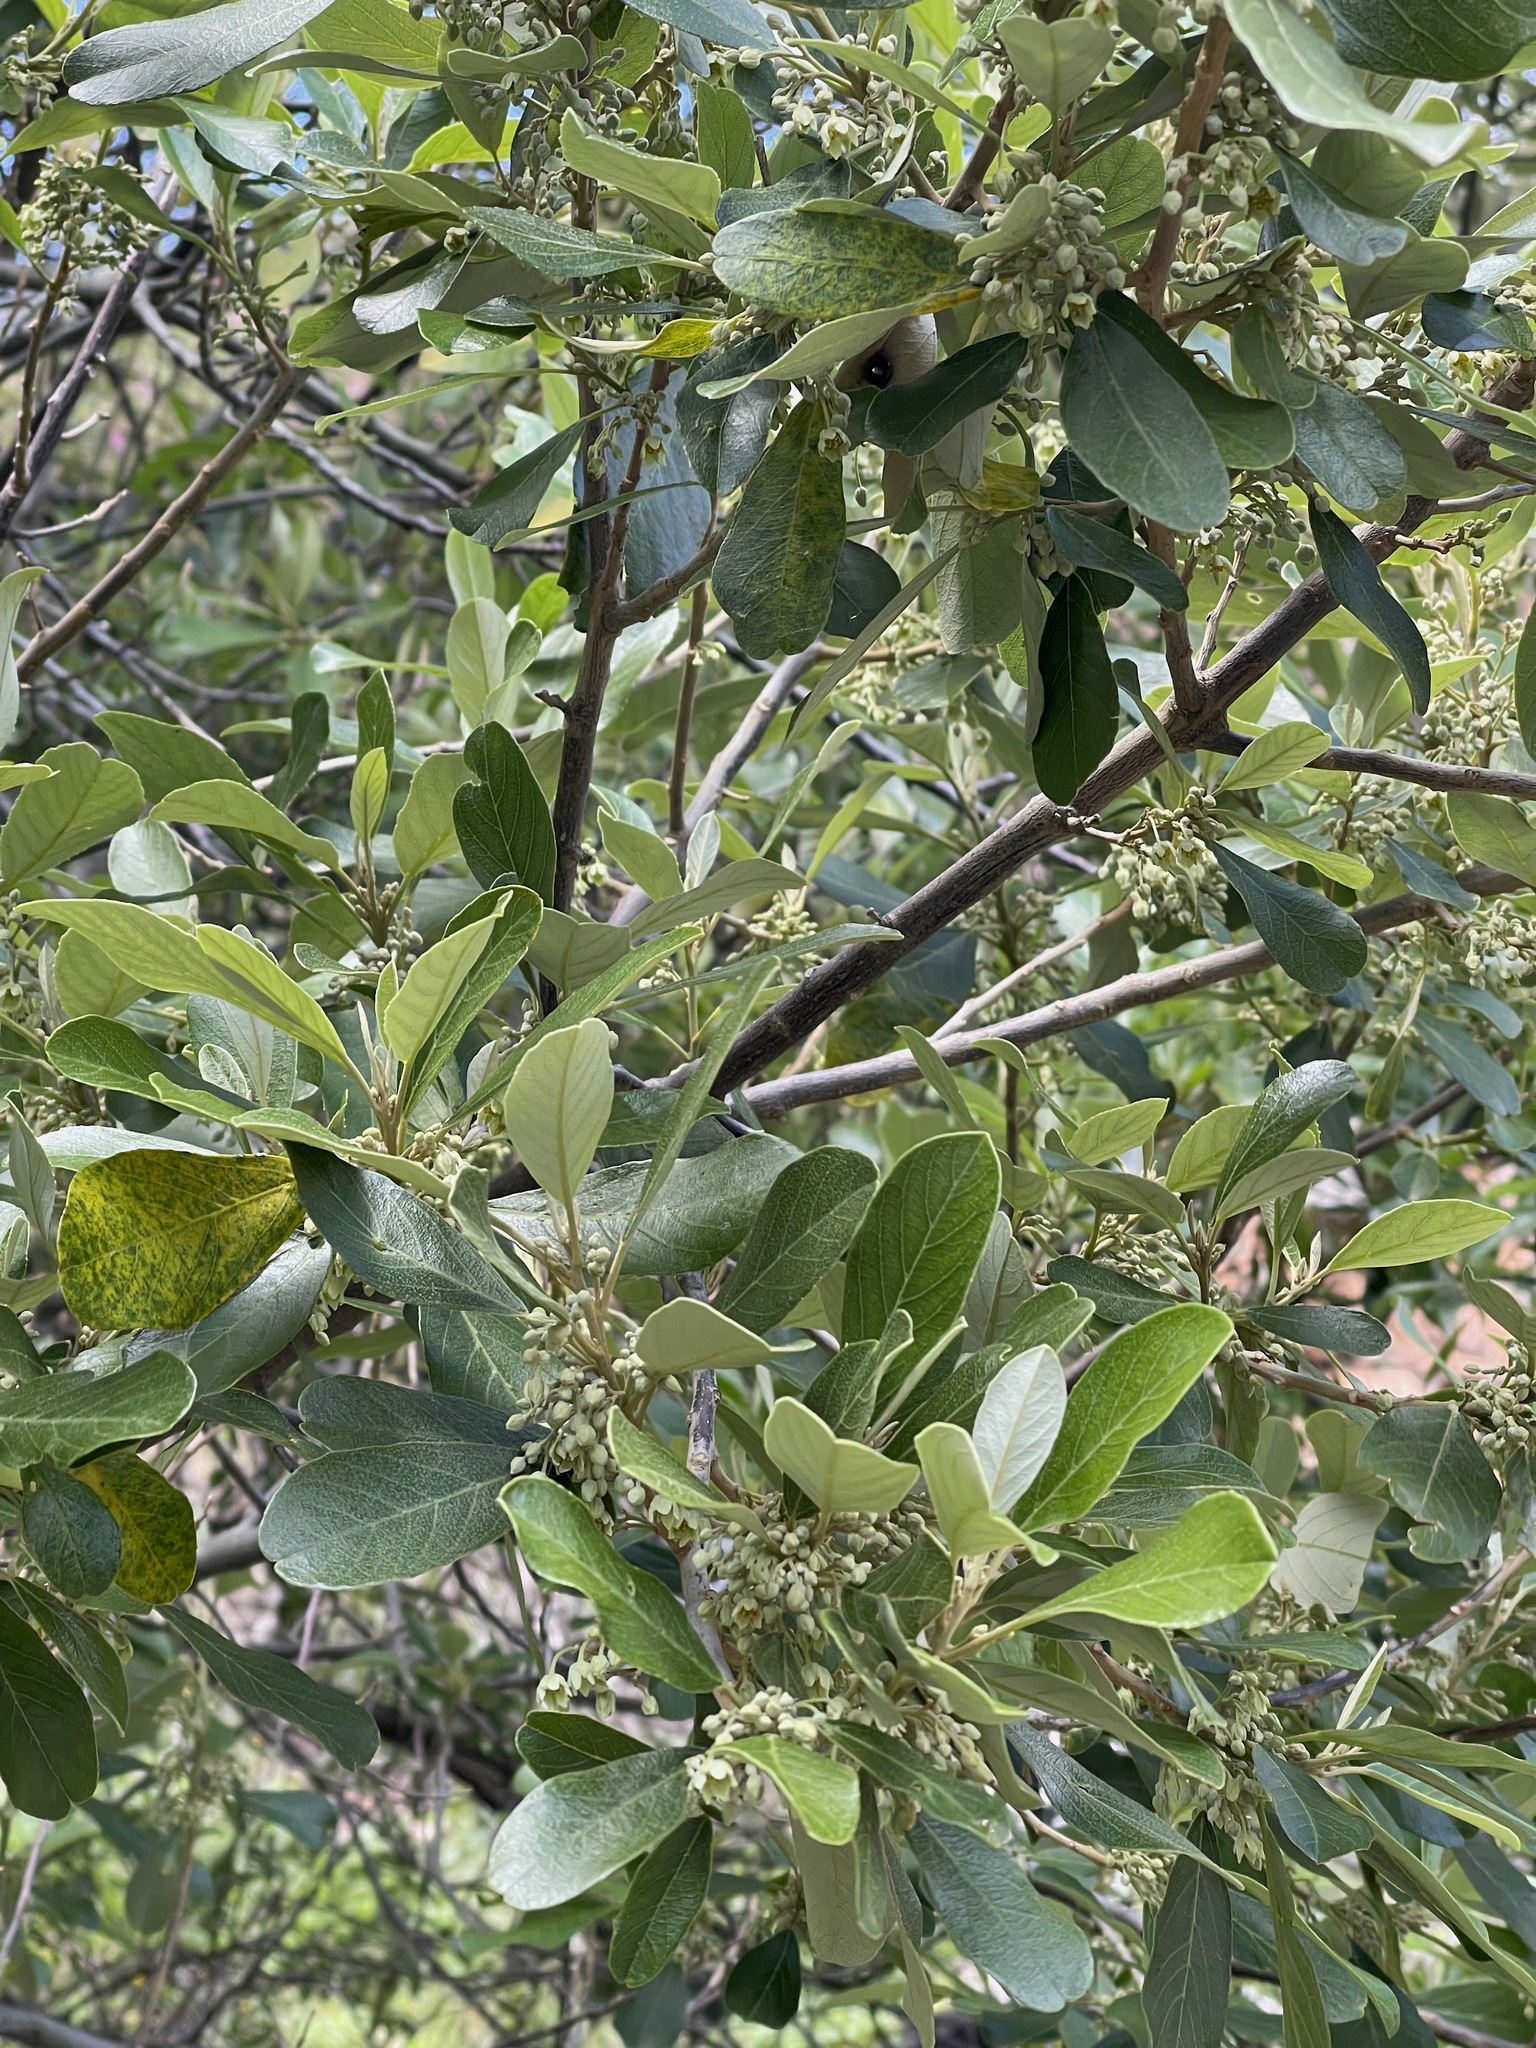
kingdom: Plantae
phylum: Tracheophyta
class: Magnoliopsida
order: Malpighiales
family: Achariaceae
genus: Kiggelaria
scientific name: Kiggelaria africana
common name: Wild peach
